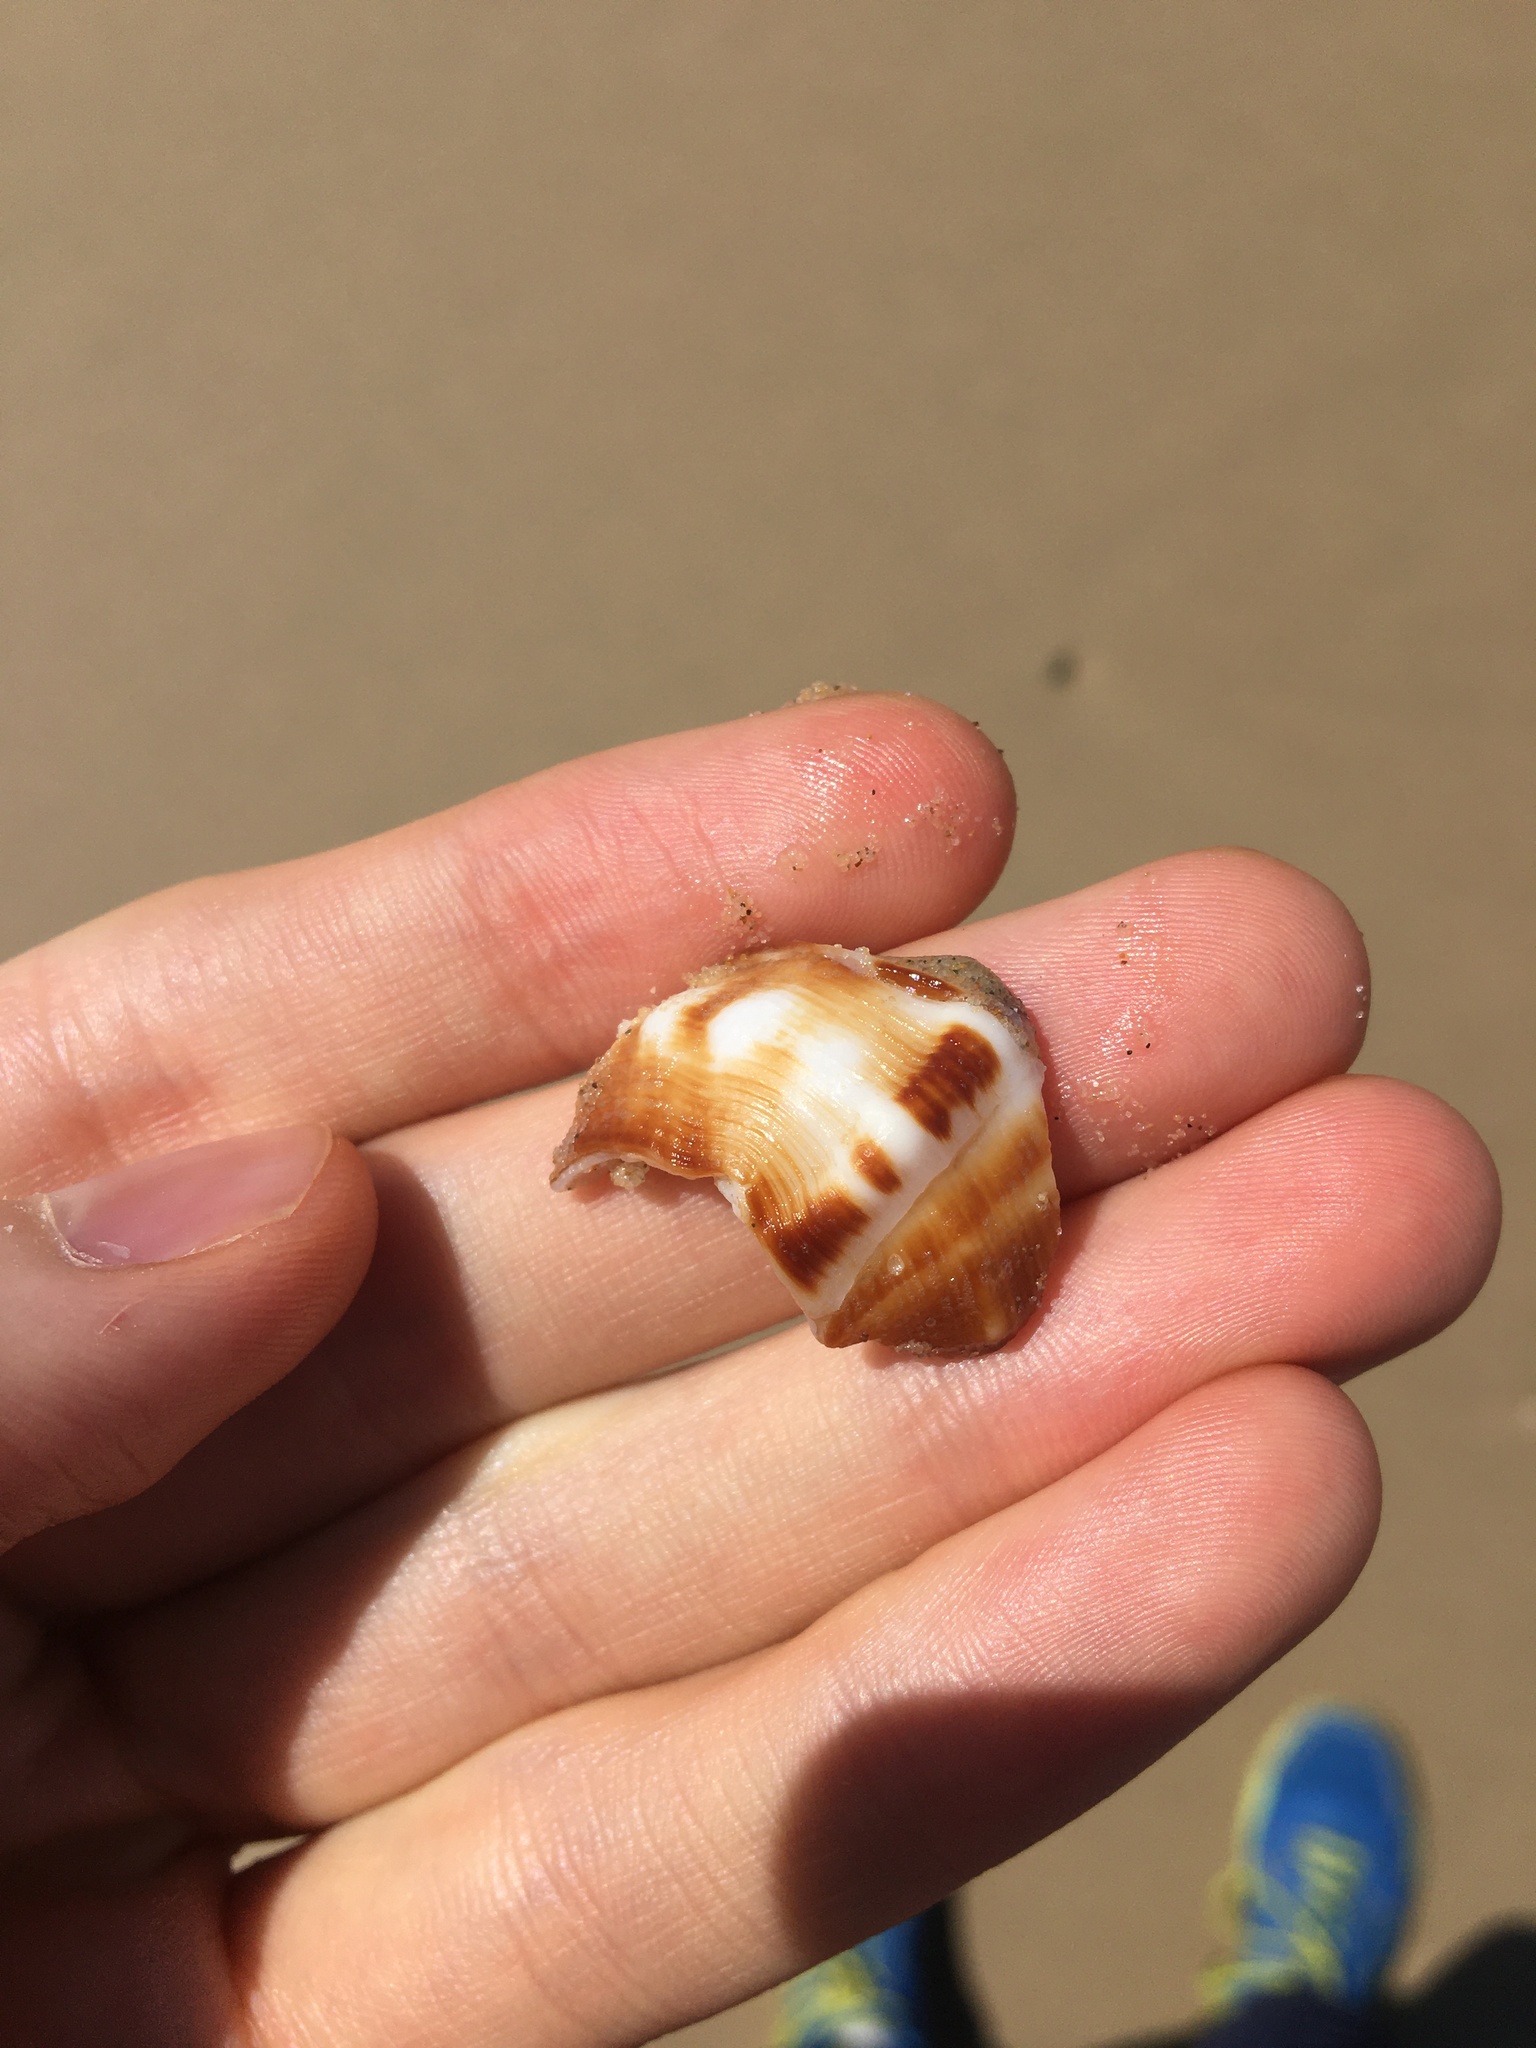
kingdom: Animalia
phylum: Mollusca
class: Gastropoda
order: Littorinimorpha
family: Ranellidae
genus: Ranella
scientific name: Ranella australasia
